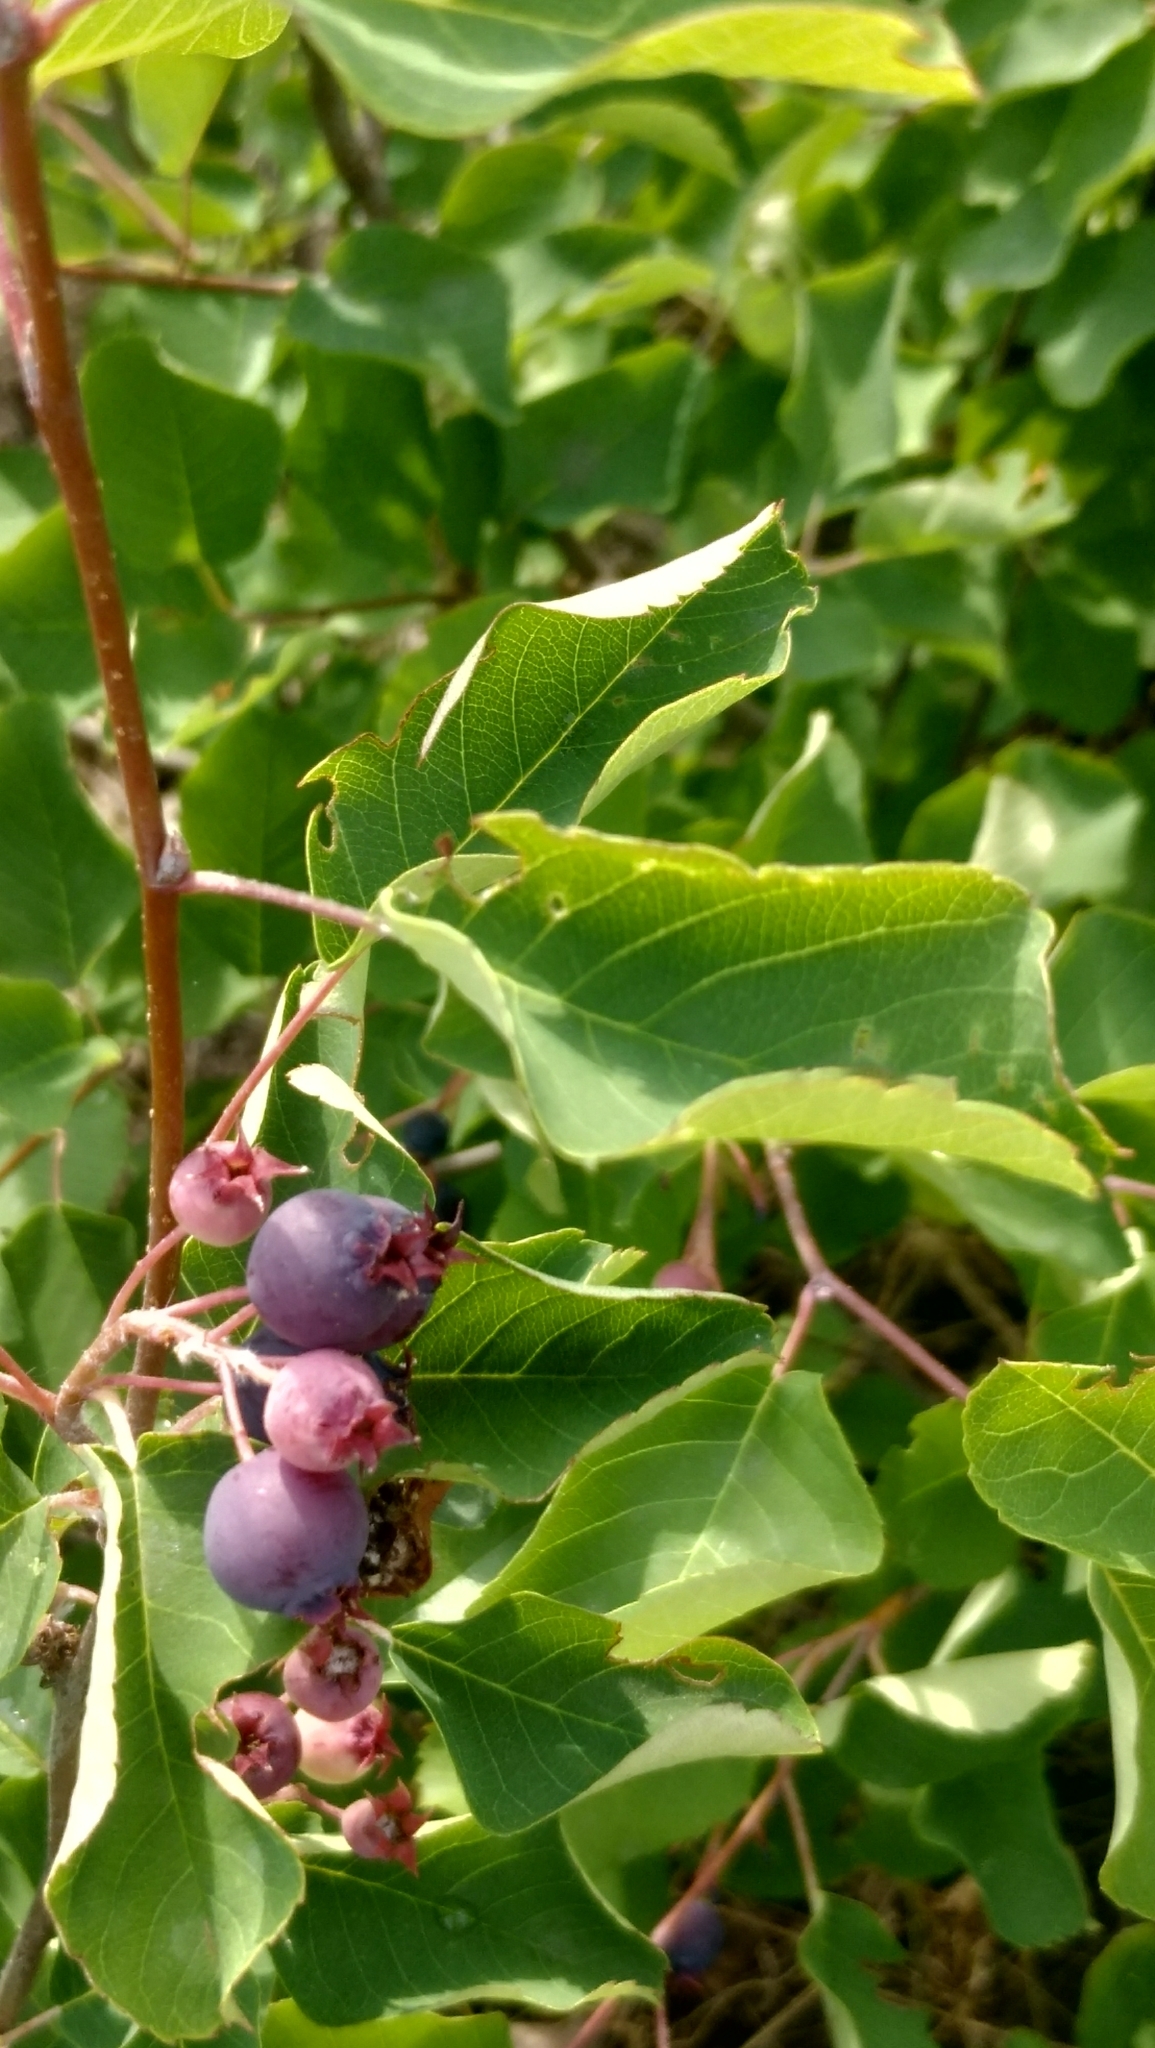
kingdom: Plantae
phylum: Tracheophyta
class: Magnoliopsida
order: Rosales
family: Rosaceae
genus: Amelanchier
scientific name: Amelanchier
